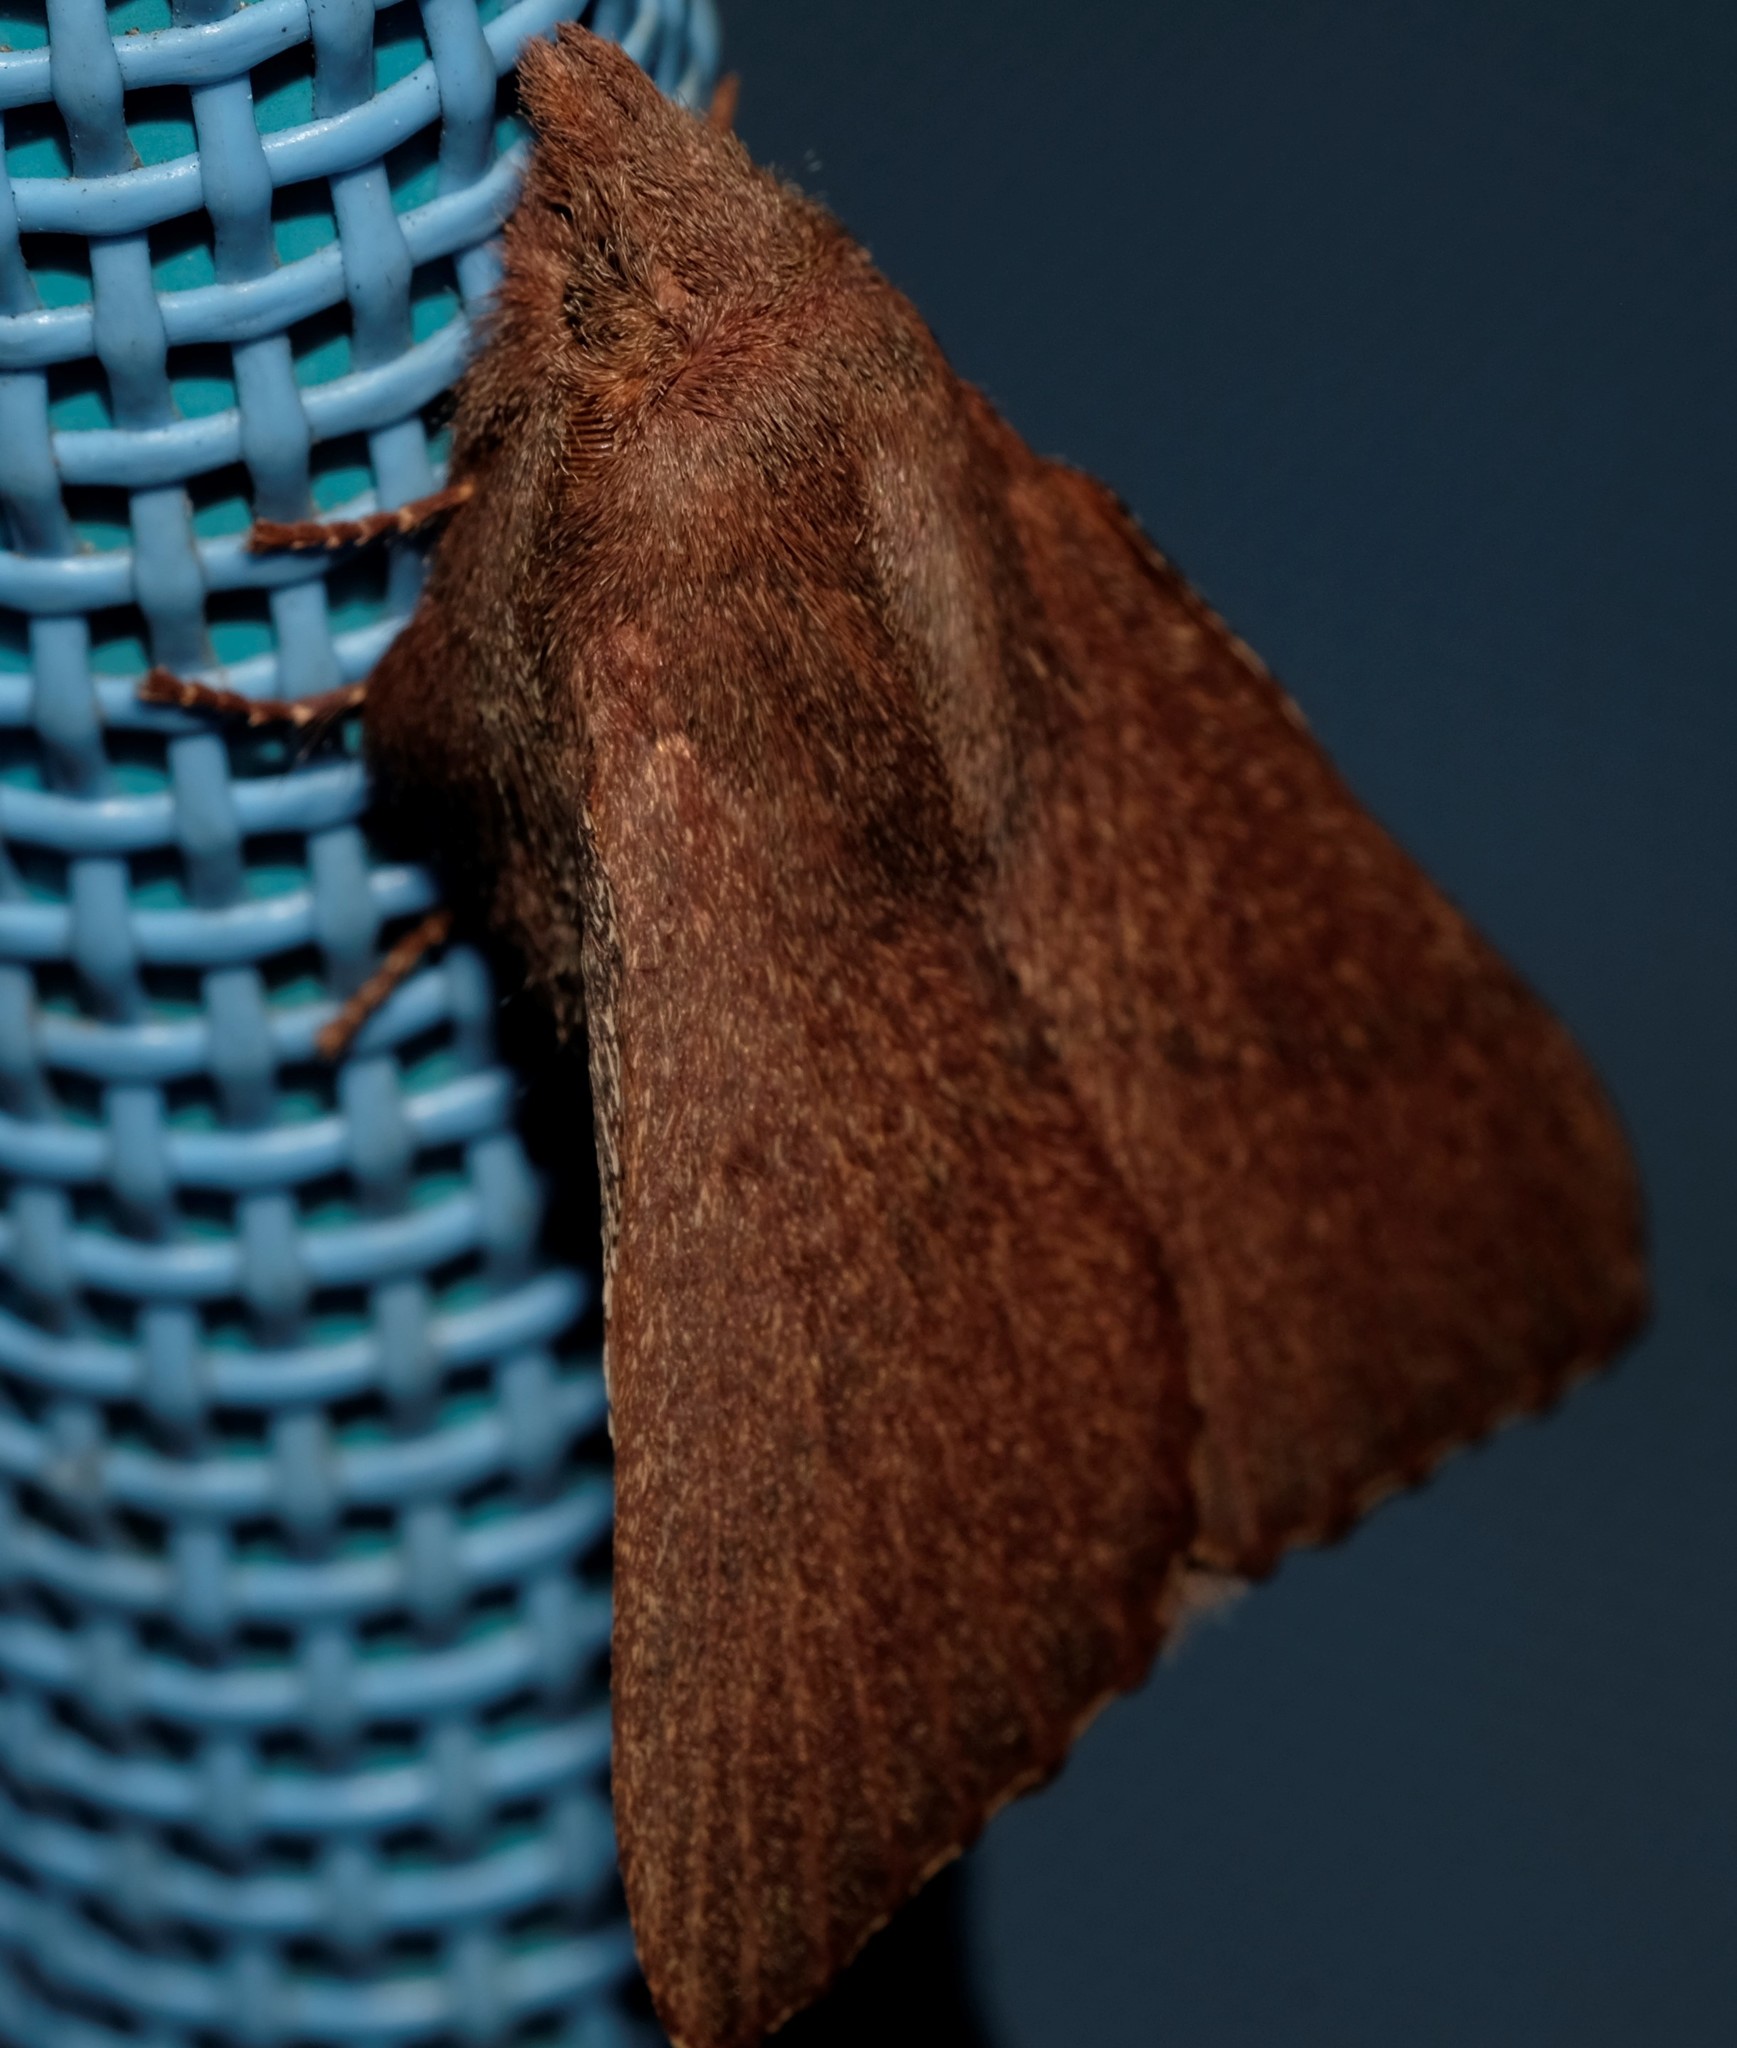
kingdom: Animalia
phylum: Arthropoda
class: Insecta
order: Lepidoptera
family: Lasiocampidae
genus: Pararguda
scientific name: Pararguda rufescens
